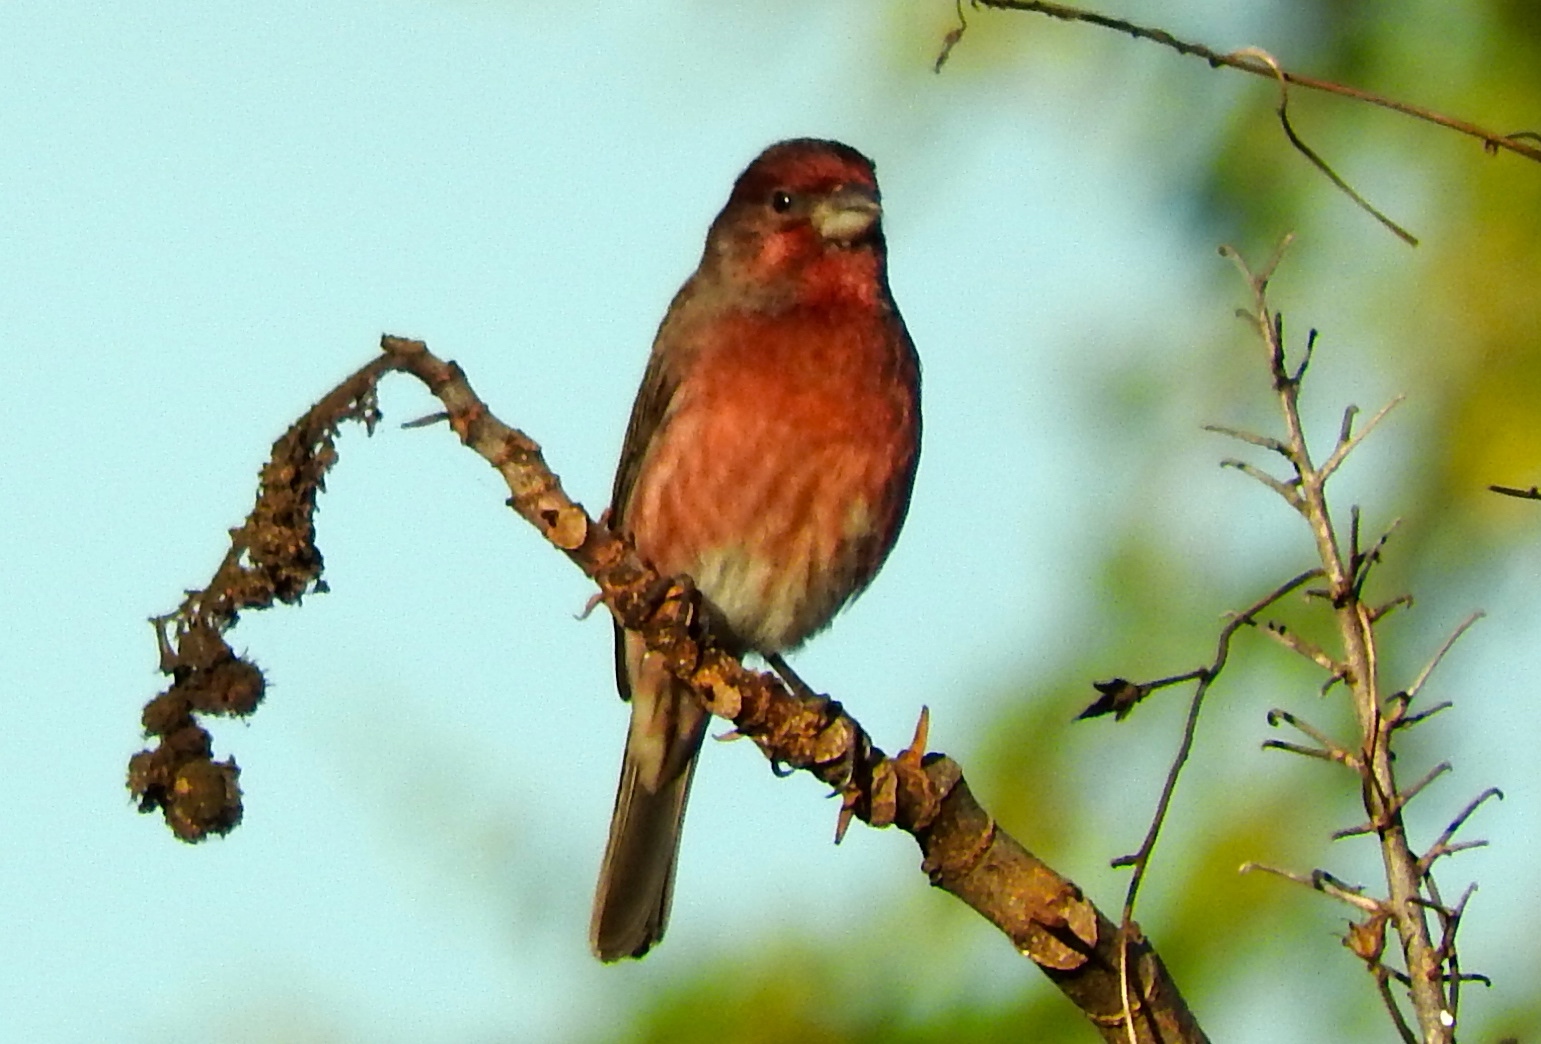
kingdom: Animalia
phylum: Chordata
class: Aves
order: Passeriformes
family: Fringillidae
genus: Haemorhous
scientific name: Haemorhous mexicanus
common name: House finch
